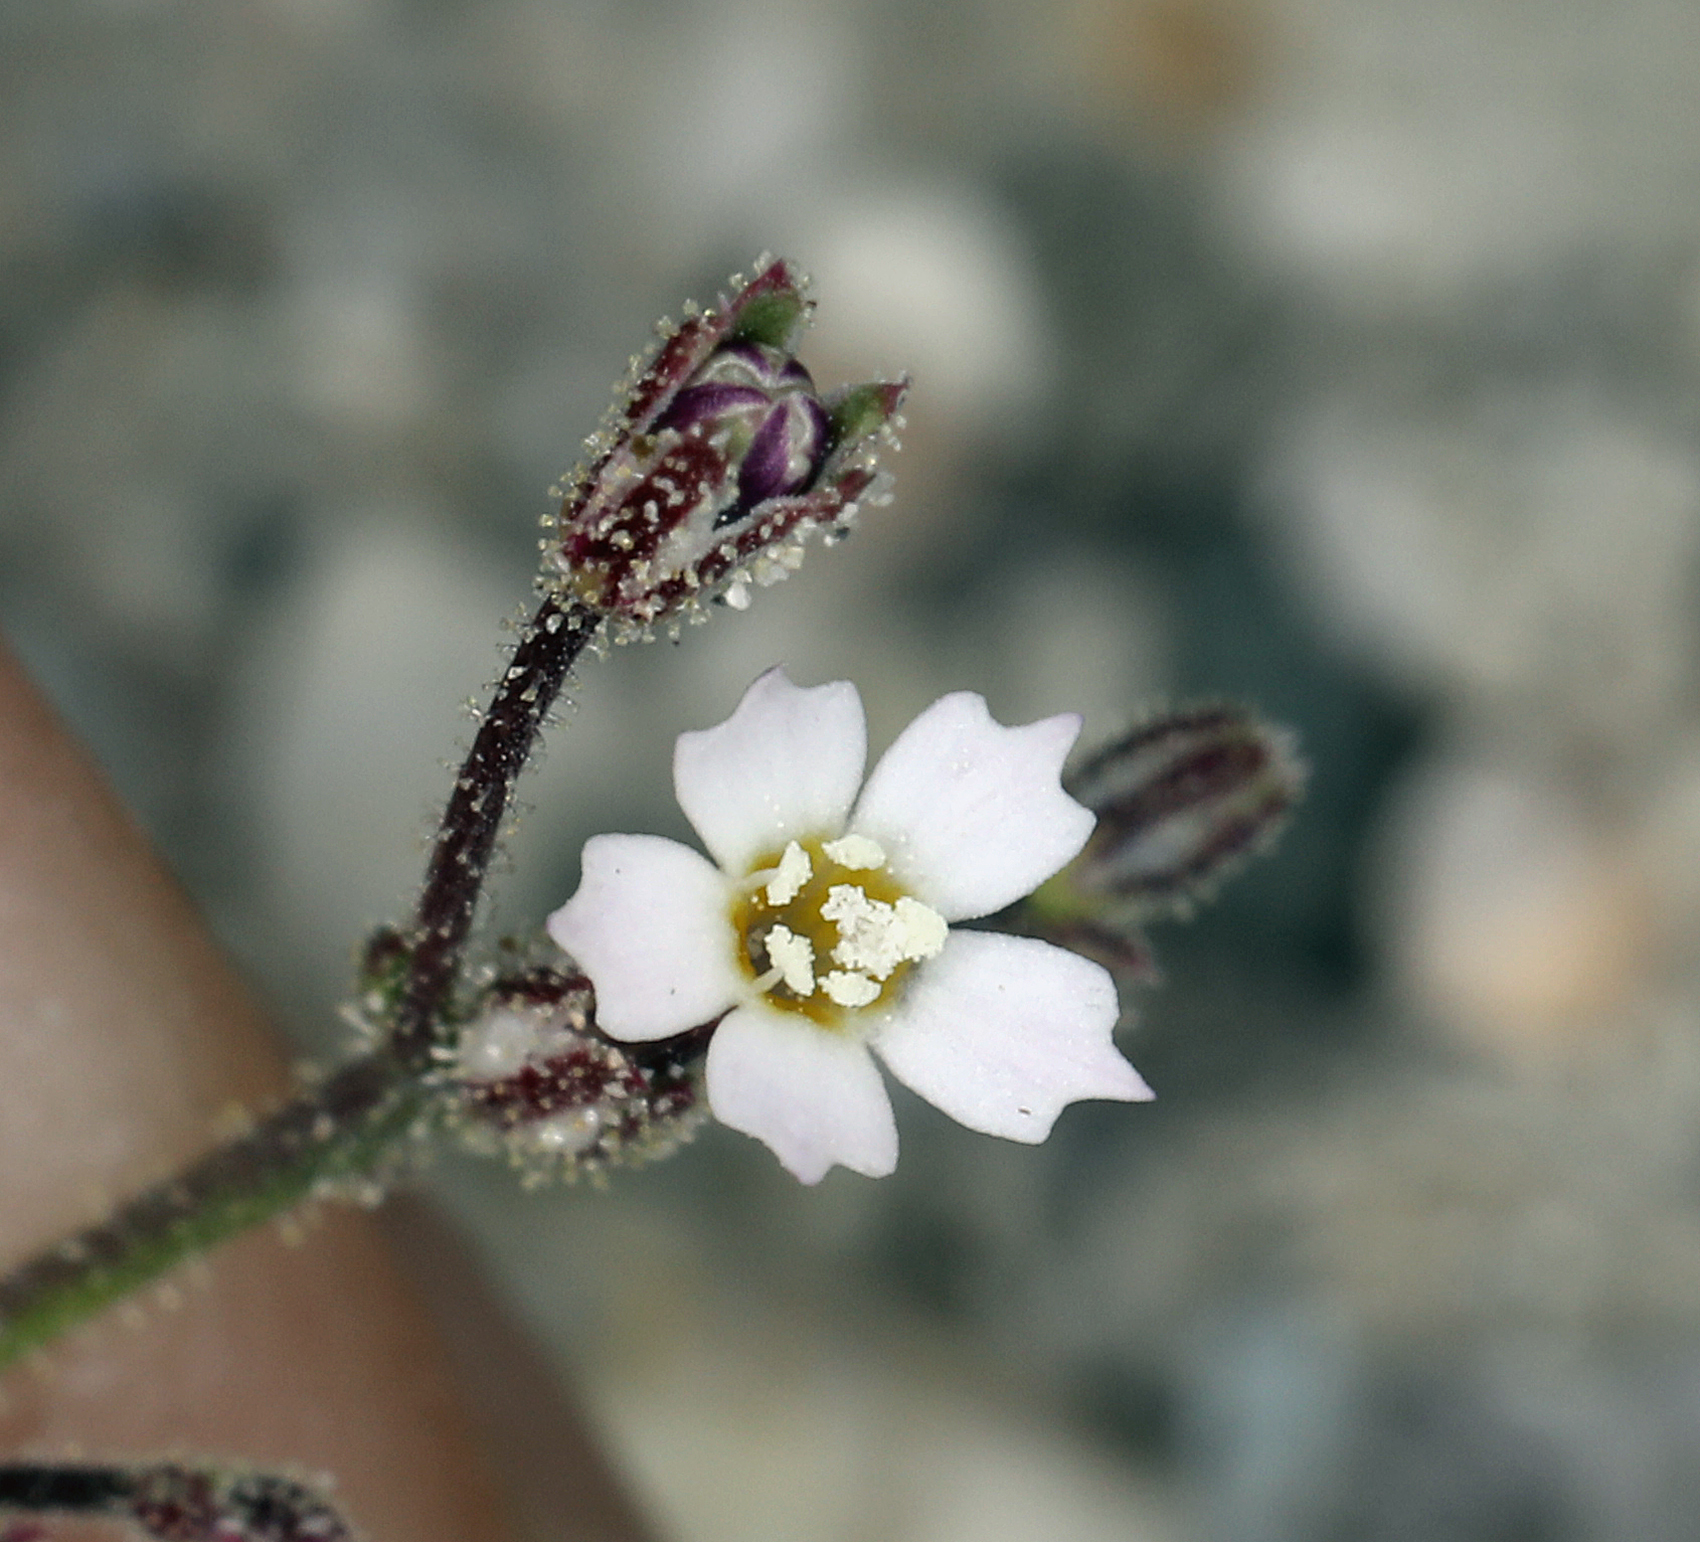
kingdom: Plantae
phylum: Tracheophyta
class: Magnoliopsida
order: Ericales
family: Polemoniaceae
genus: Aliciella
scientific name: Aliciella leptomeria
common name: Sand gilia
